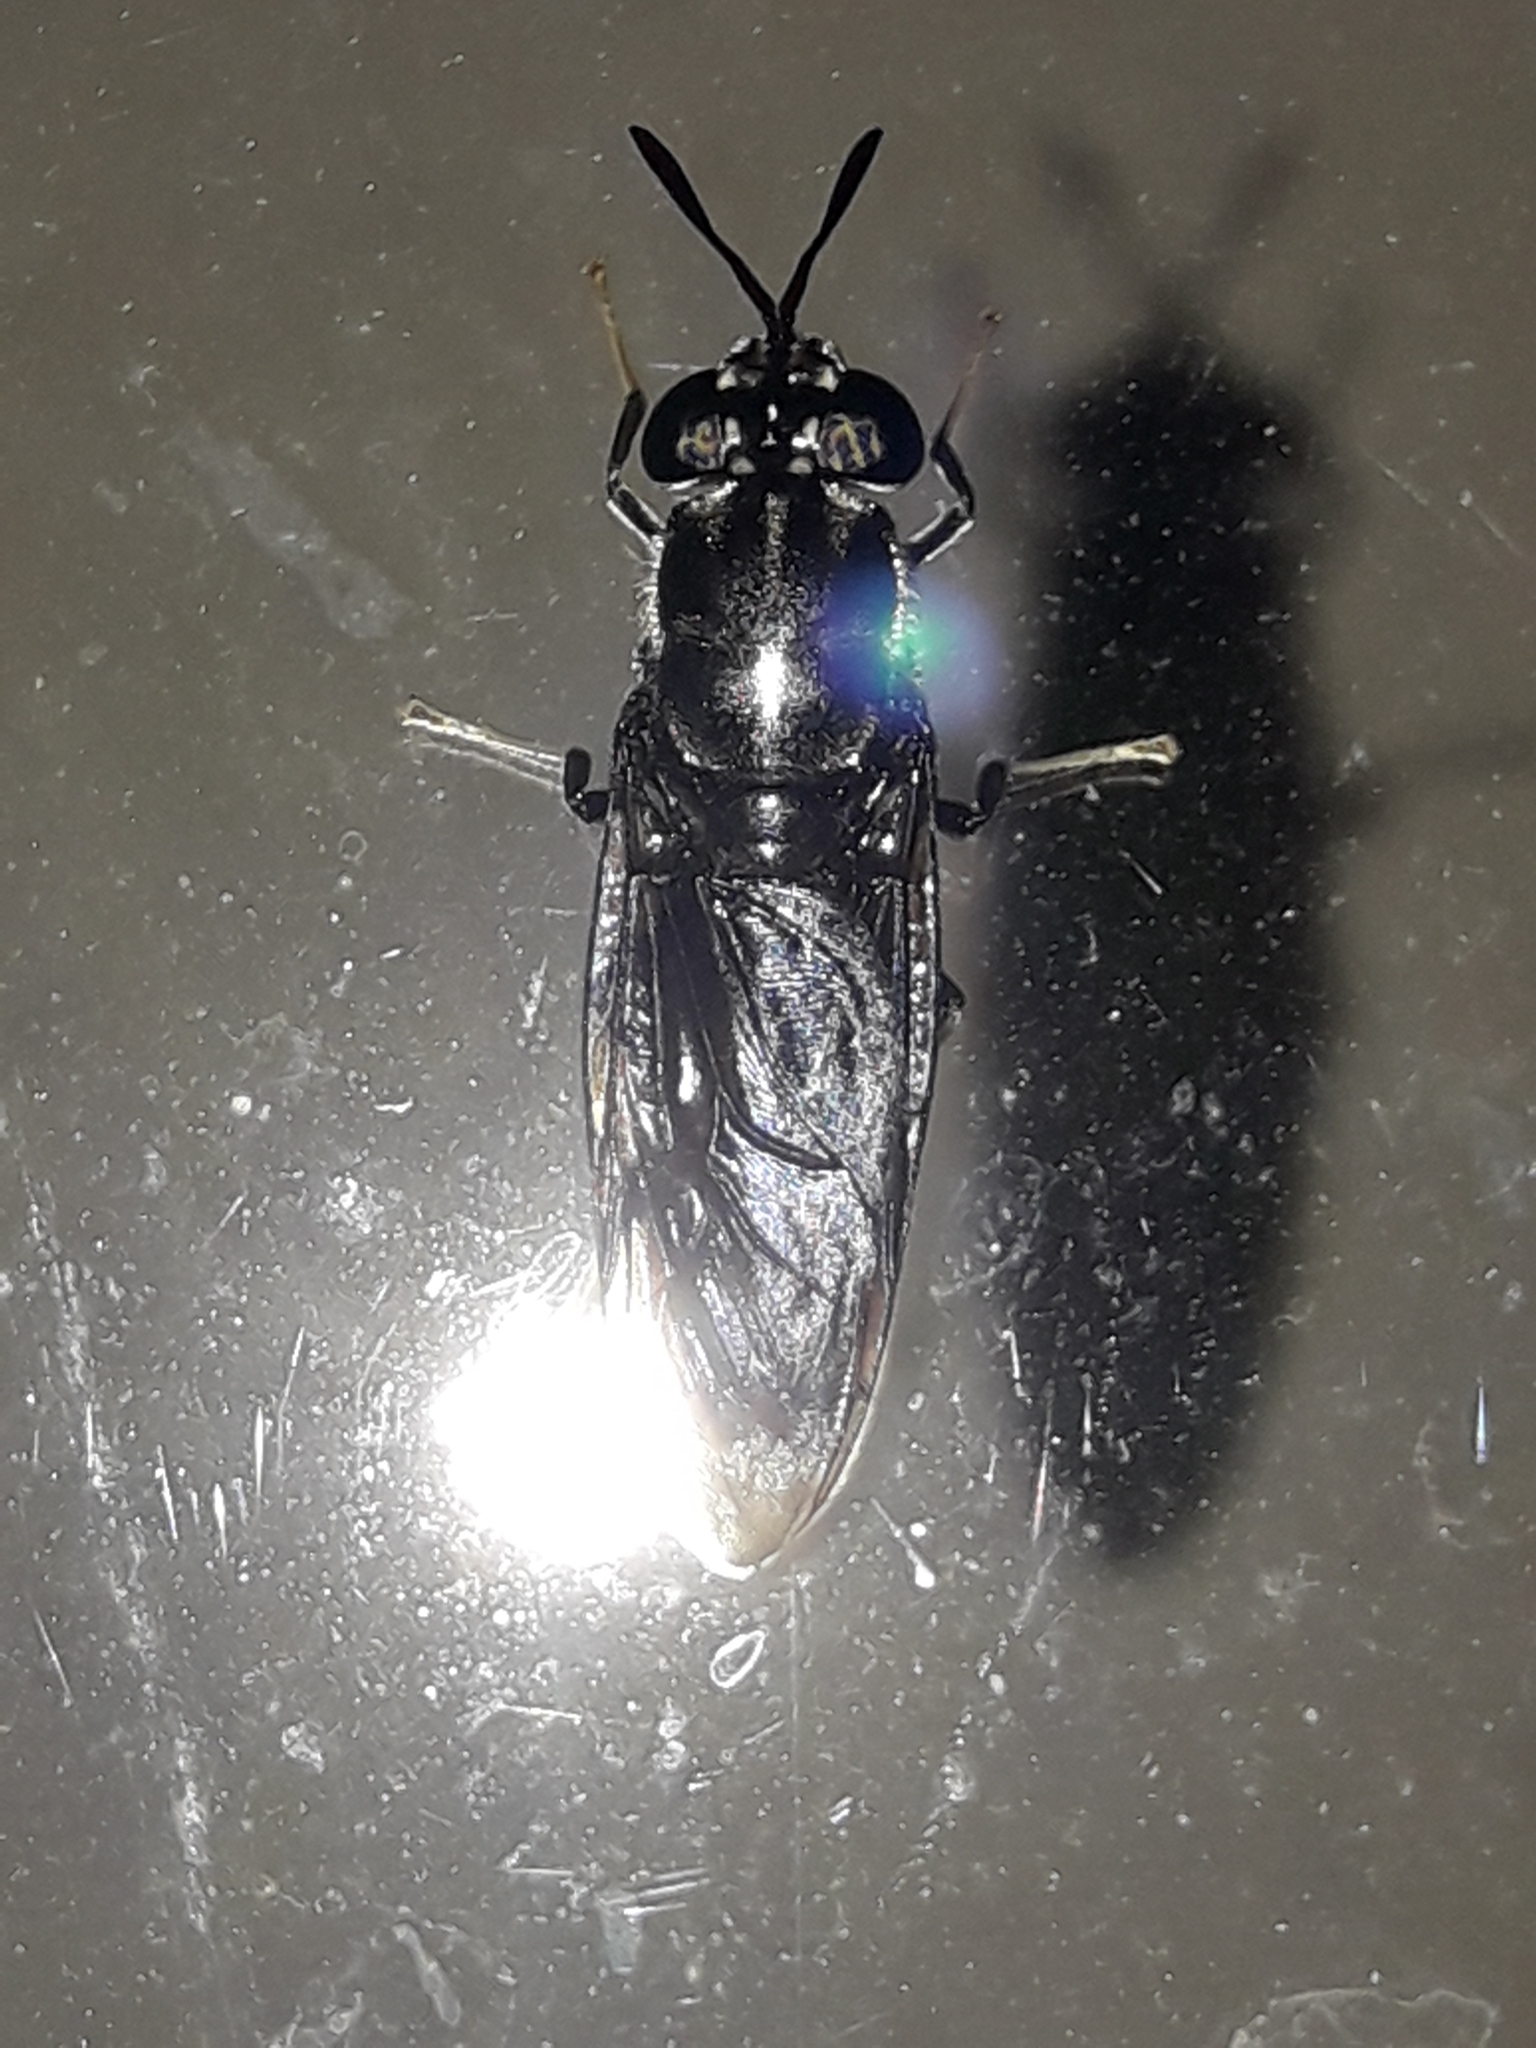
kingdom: Animalia
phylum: Arthropoda
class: Insecta
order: Diptera
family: Stratiomyidae
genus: Hermetia
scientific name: Hermetia illucens
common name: Black soldier fly
